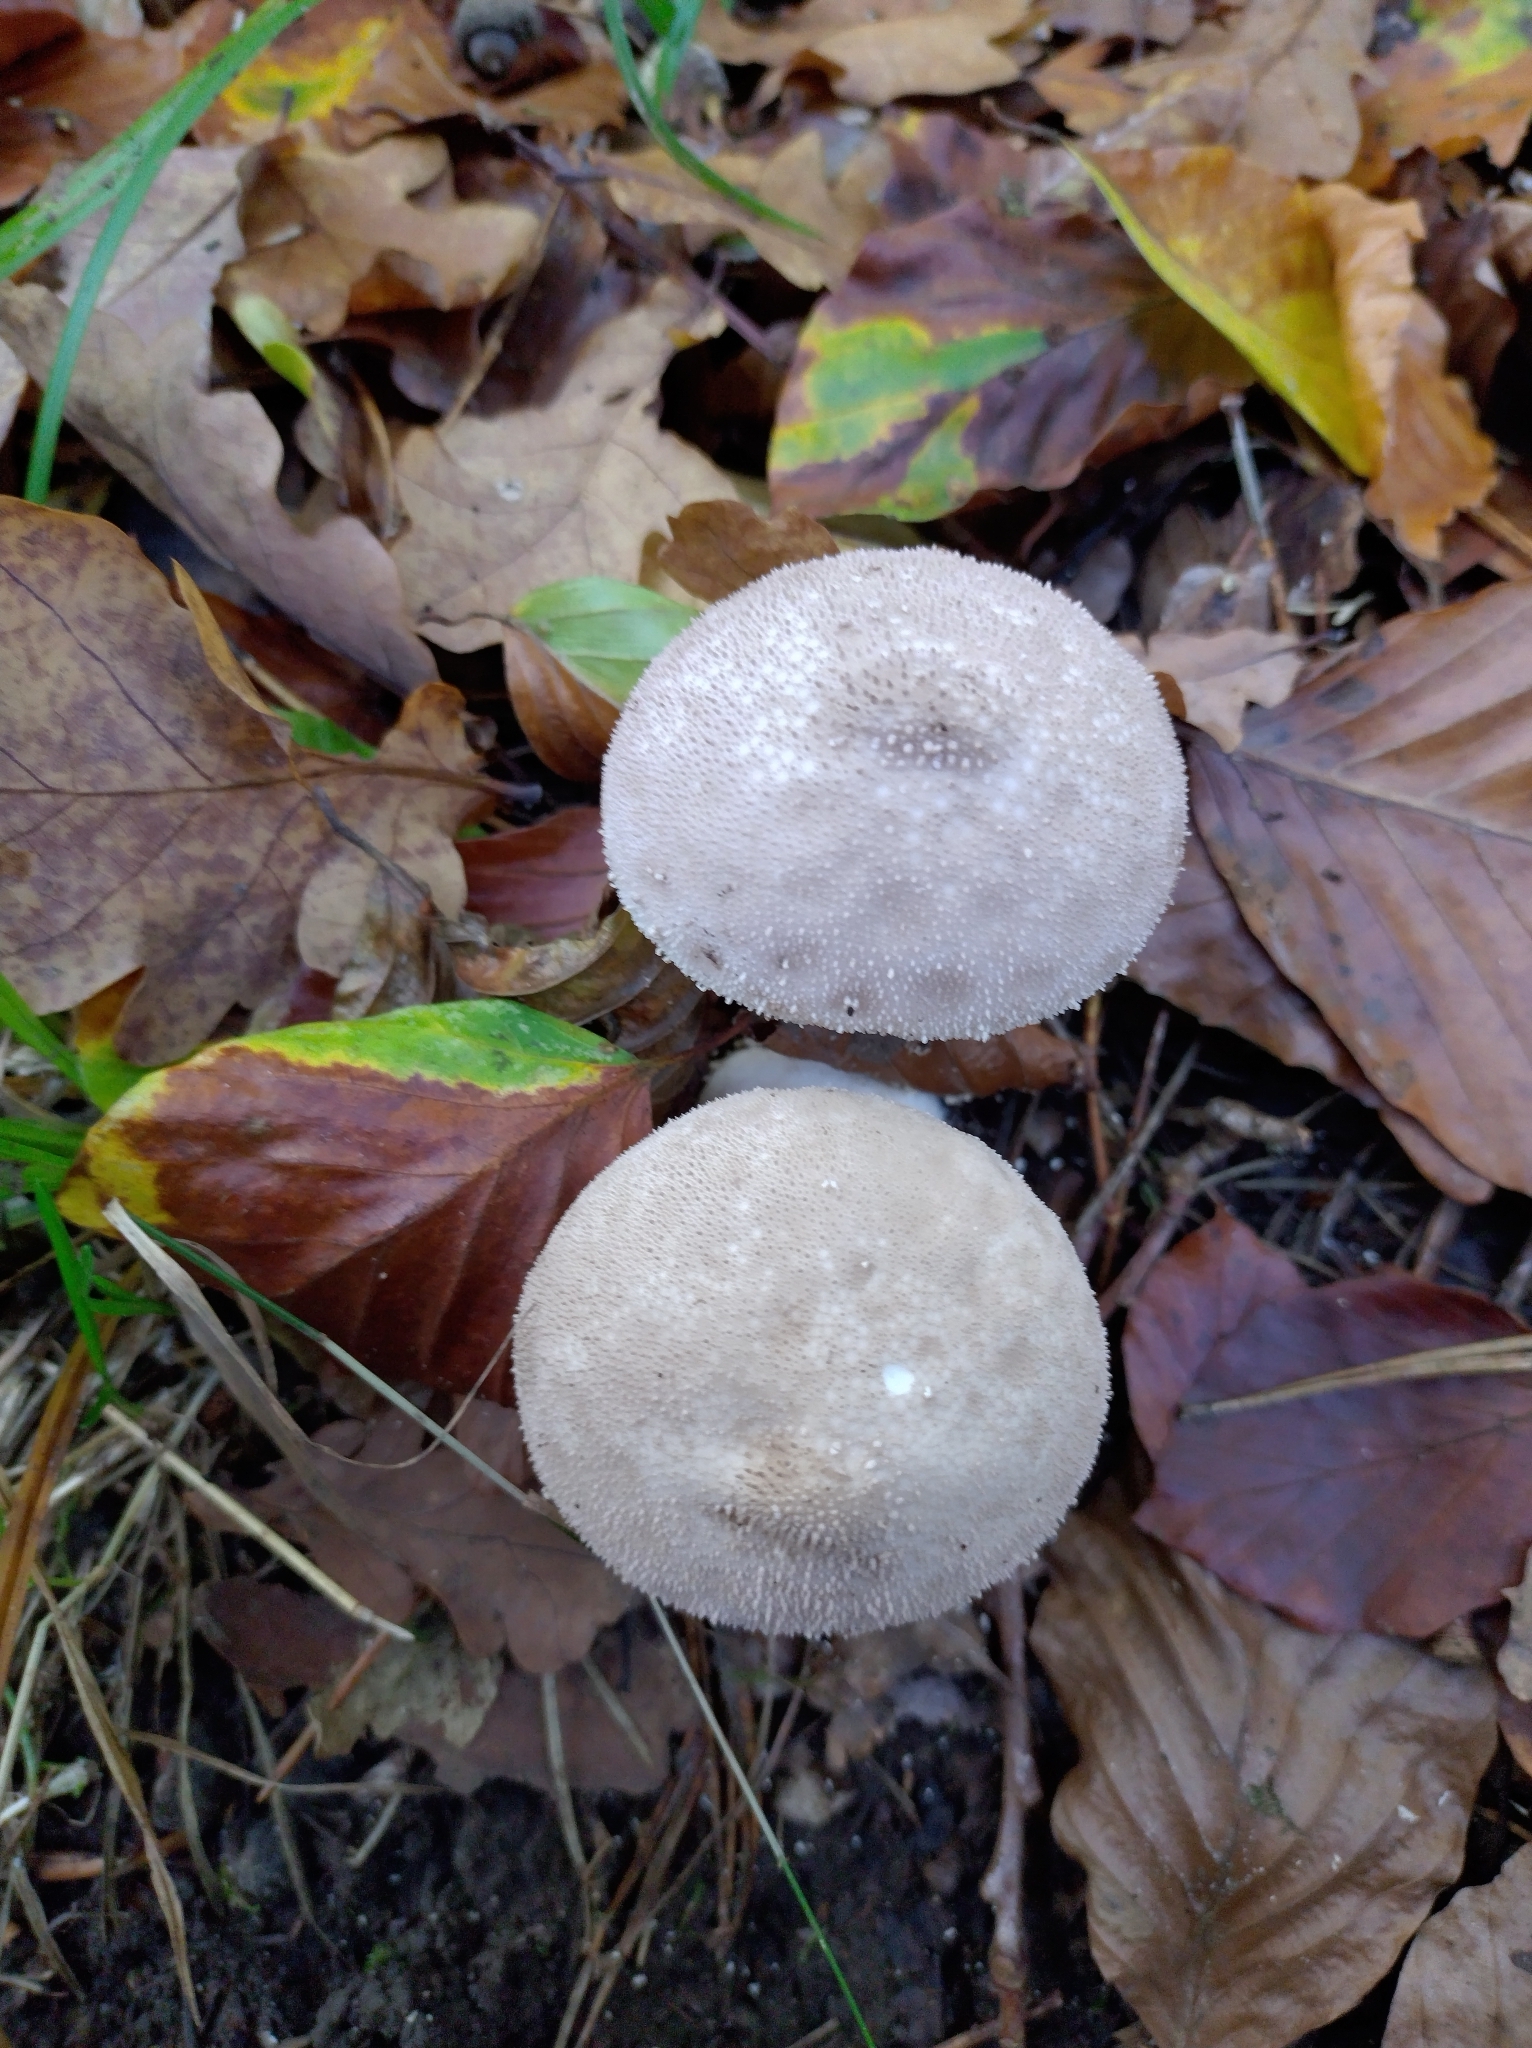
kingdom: Fungi
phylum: Basidiomycota
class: Agaricomycetes
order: Agaricales
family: Lycoperdaceae
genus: Lycoperdon
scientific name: Lycoperdon perlatum
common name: Common puffball
